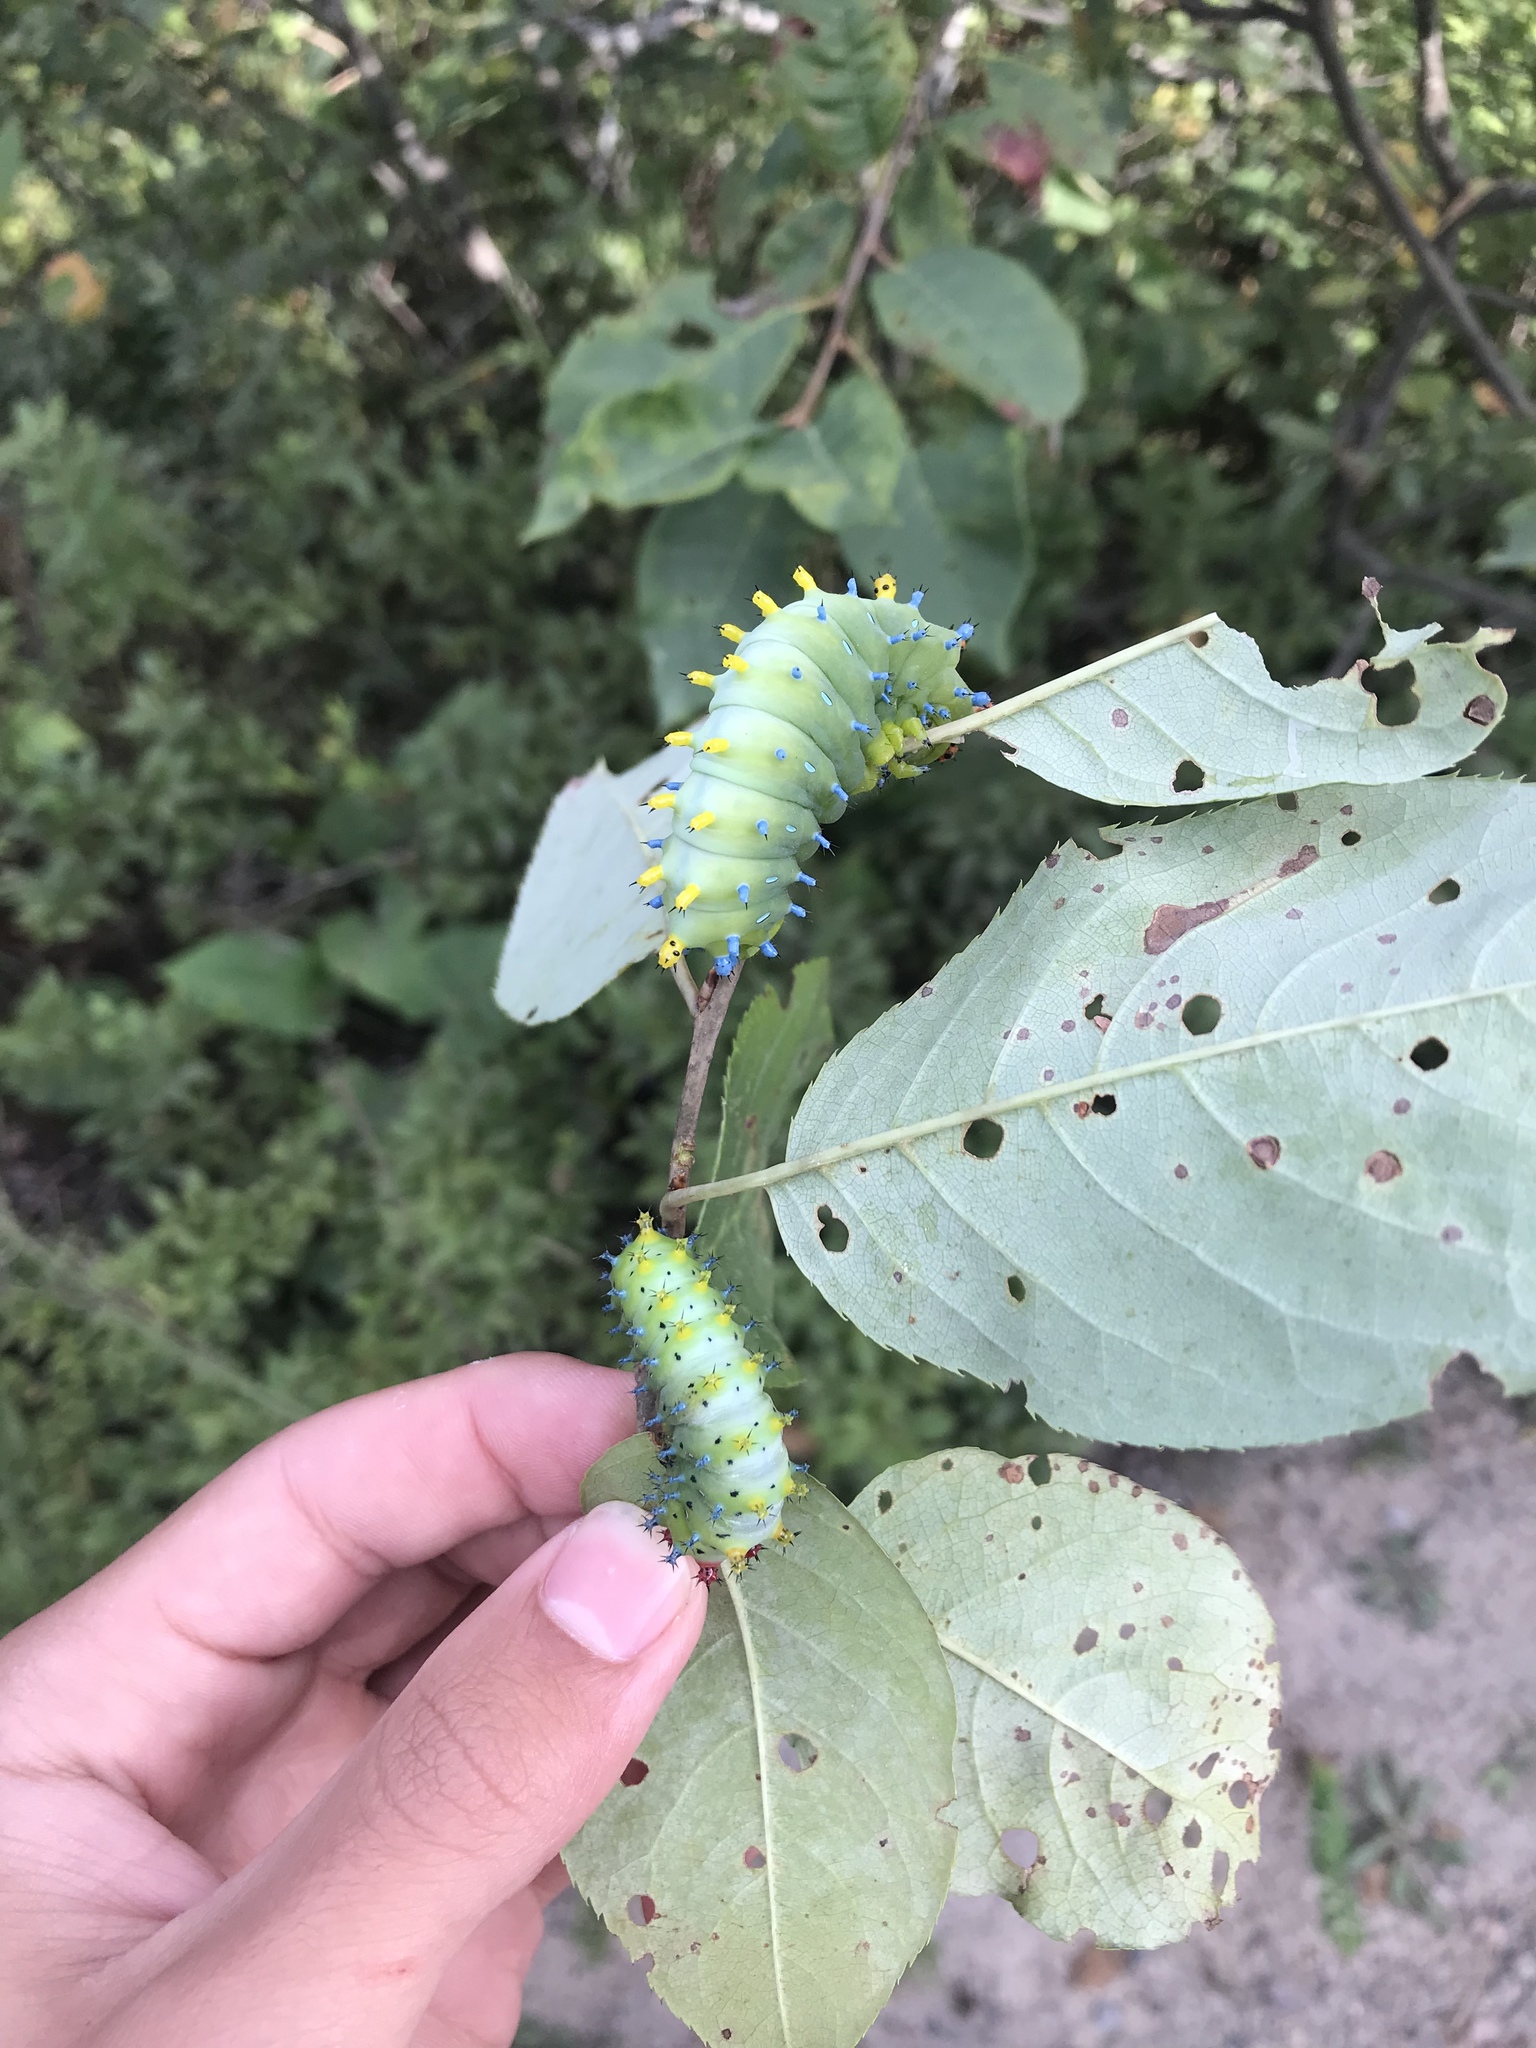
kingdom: Animalia
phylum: Arthropoda
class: Insecta
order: Lepidoptera
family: Saturniidae
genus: Hyalophora
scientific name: Hyalophora cecropia
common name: Cecropia silkmoth
